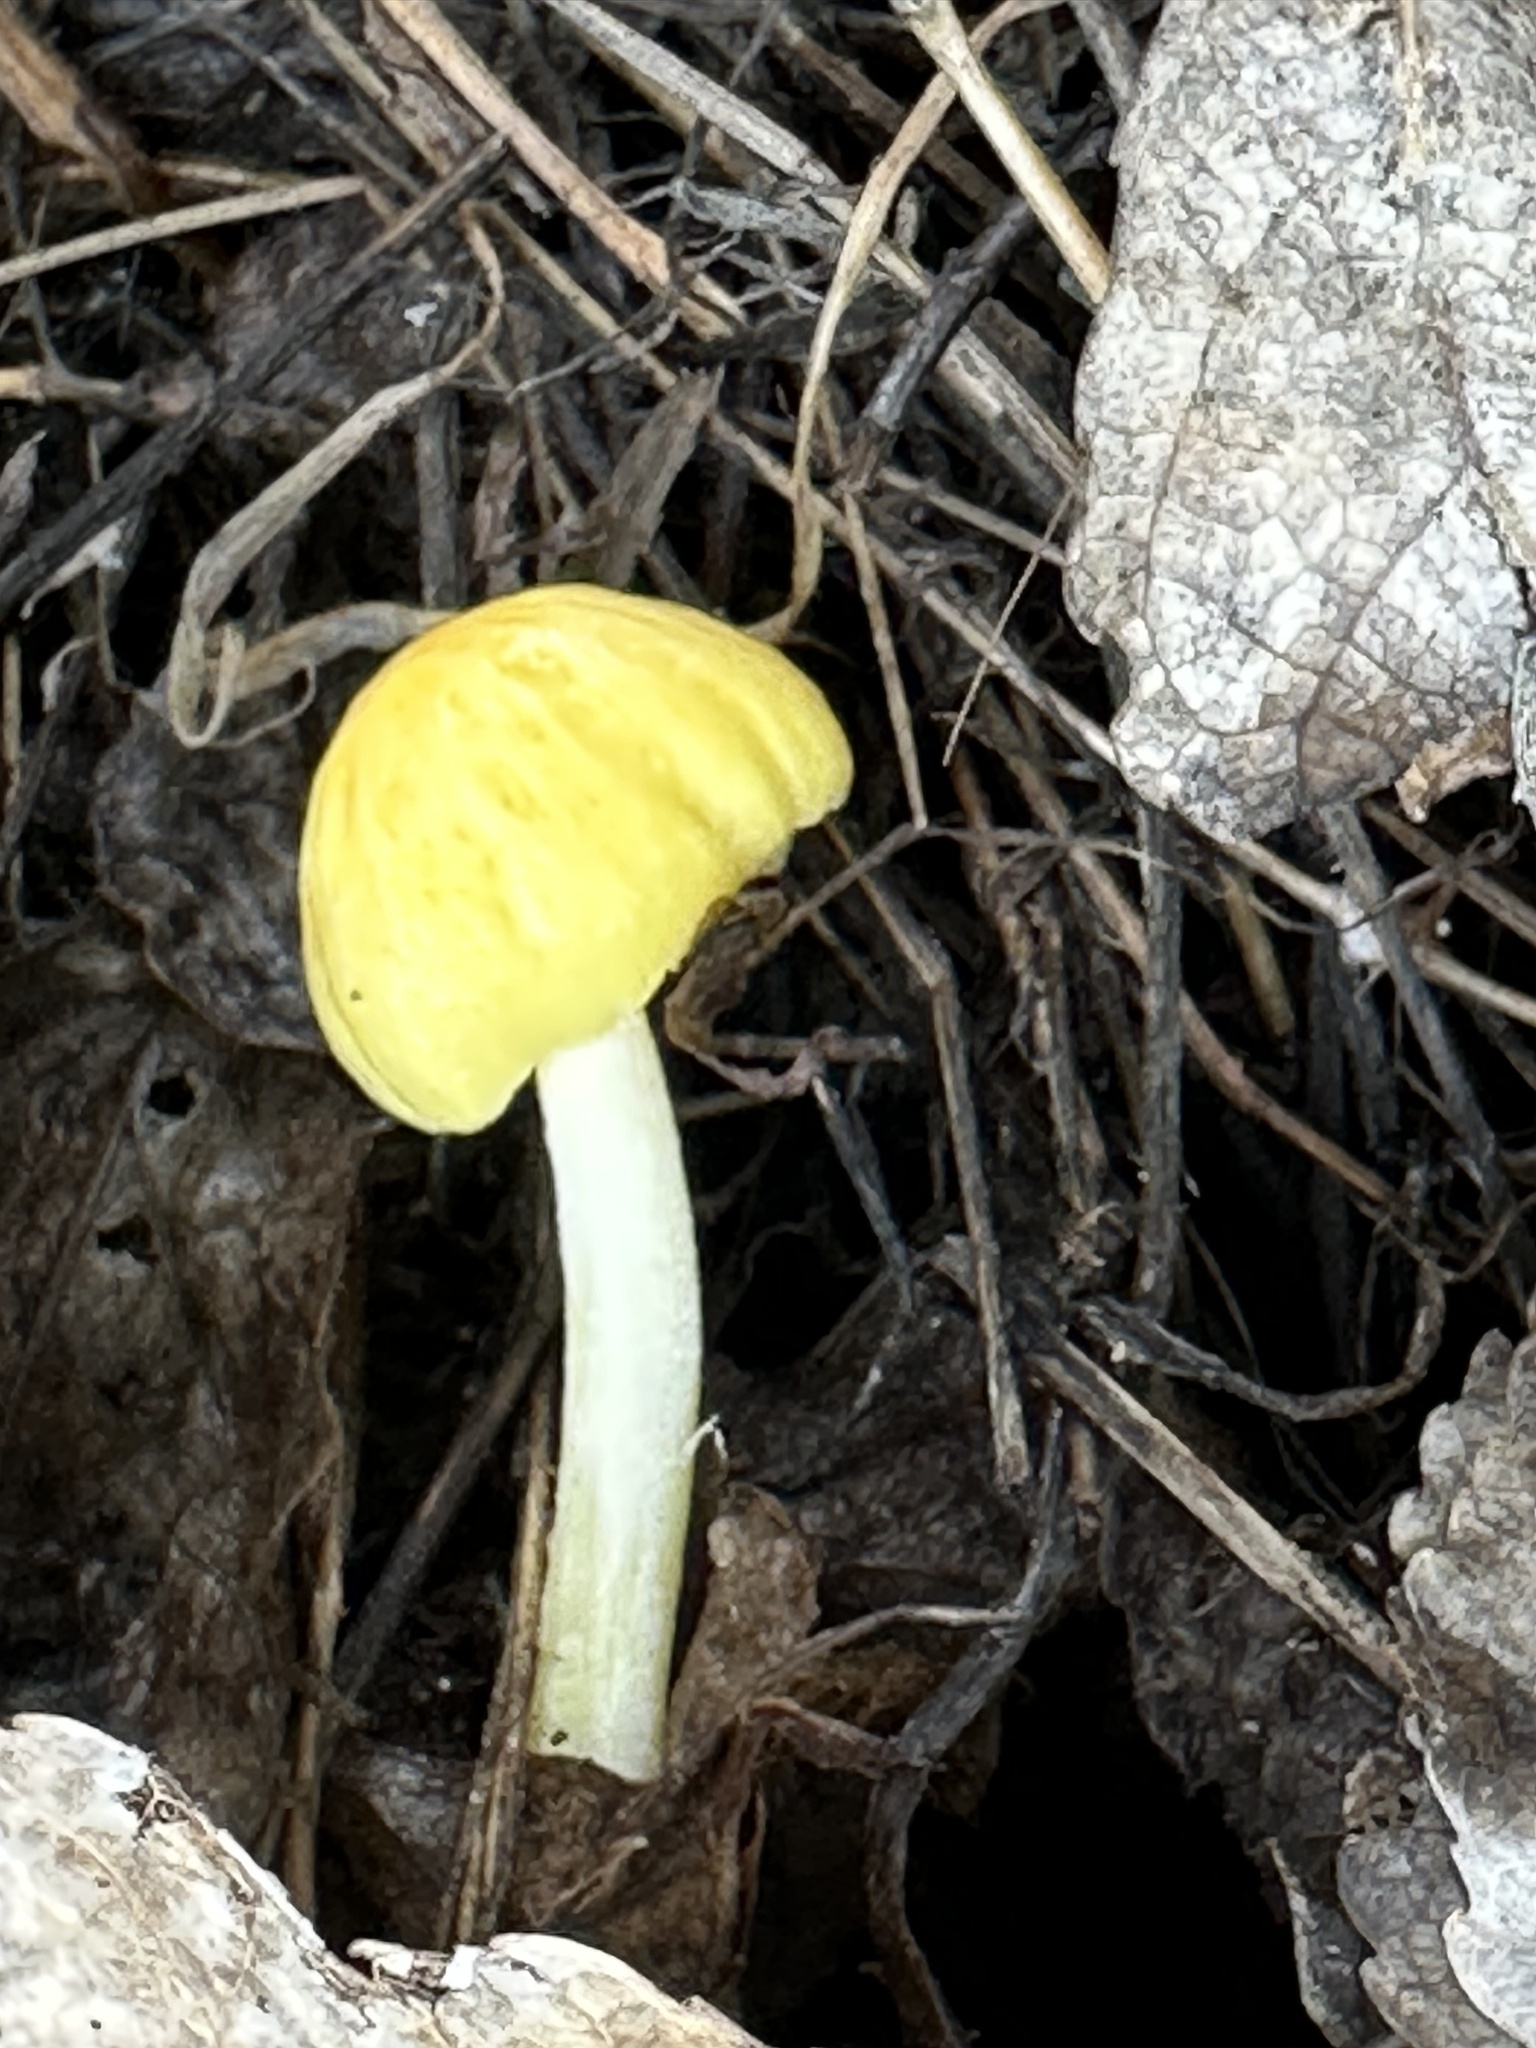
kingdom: Fungi
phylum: Basidiomycota
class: Agaricomycetes
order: Agaricales
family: Bolbitiaceae
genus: Bolbitius
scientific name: Bolbitius titubans
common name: Yellow fieldcap
